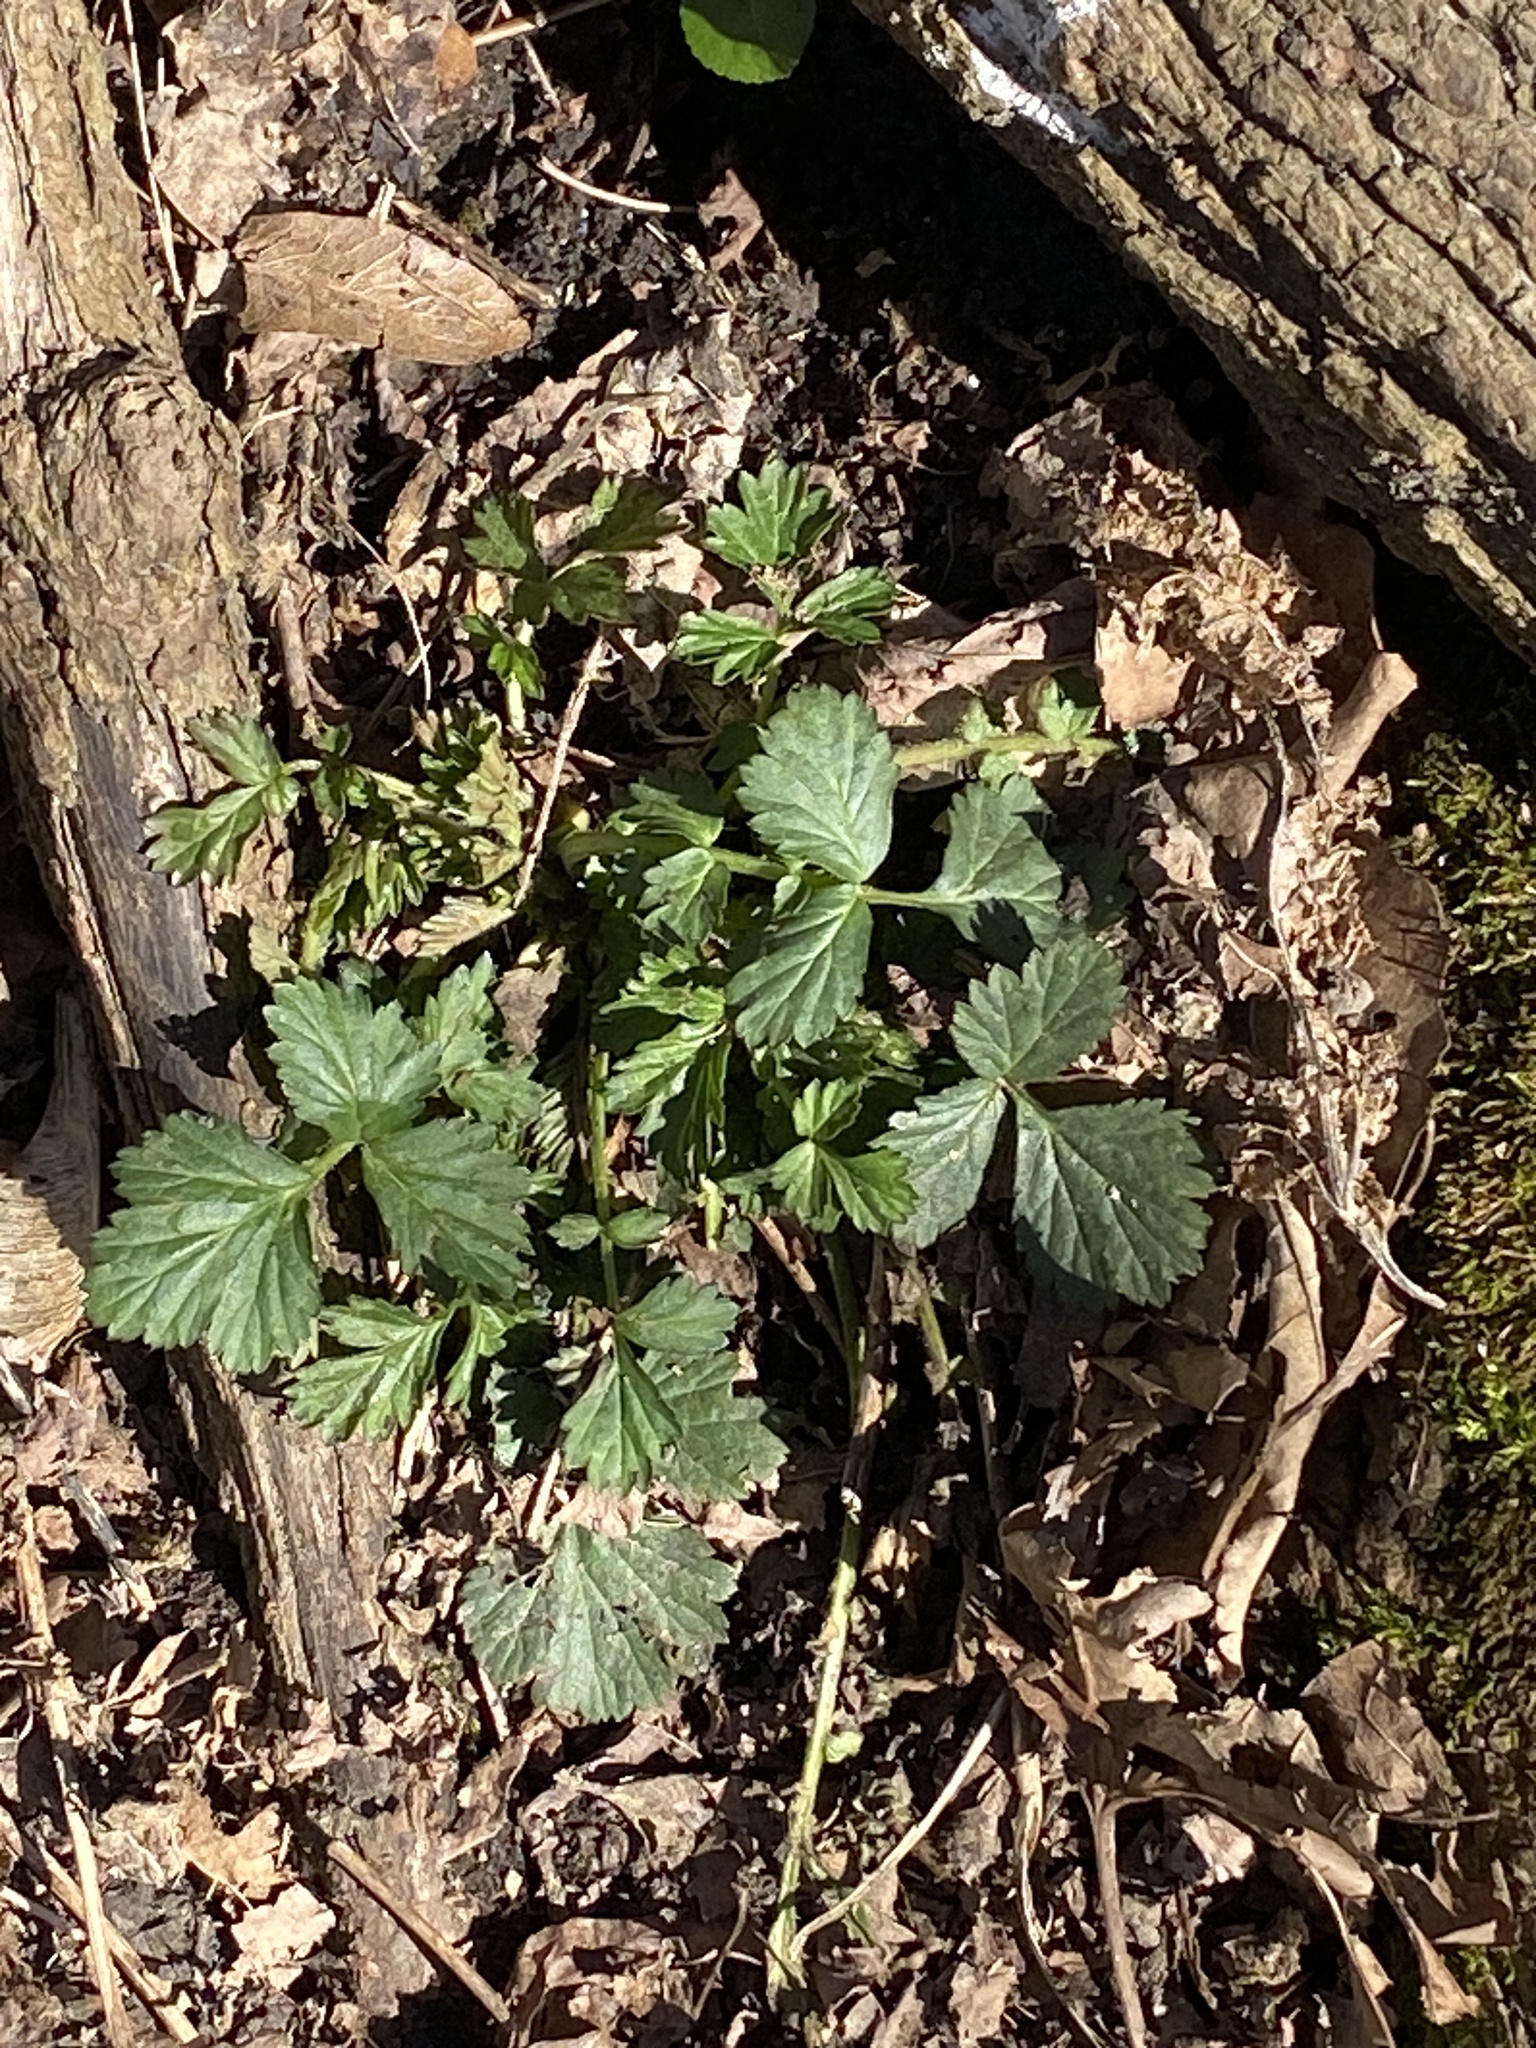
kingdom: Plantae
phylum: Tracheophyta
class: Magnoliopsida
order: Rosales
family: Rosaceae
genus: Geum
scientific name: Geum canadense
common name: White avens
